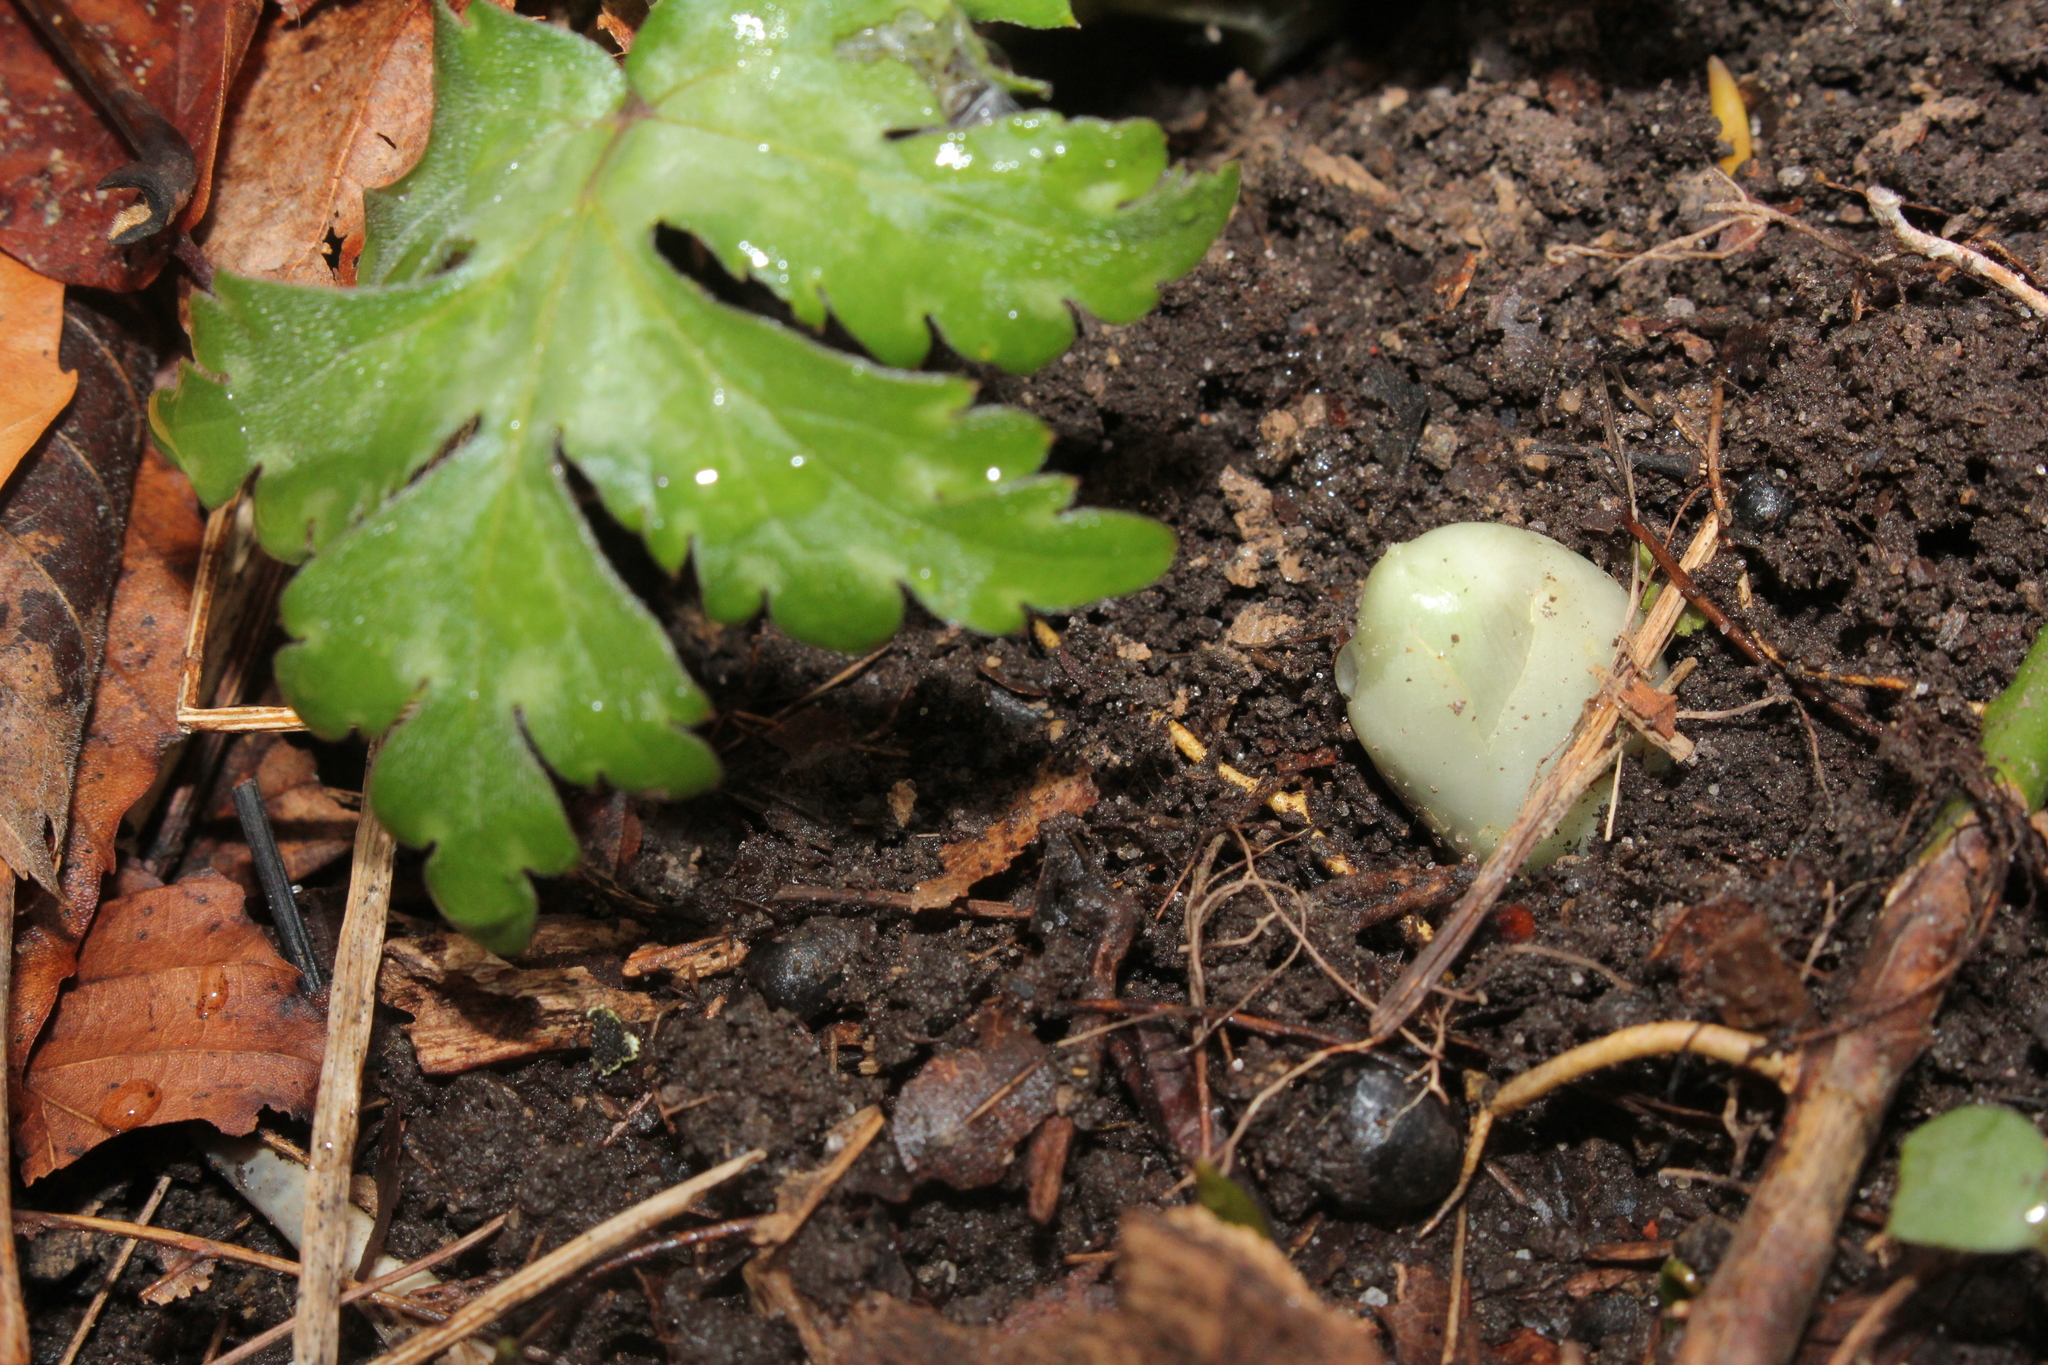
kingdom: Plantae
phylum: Tracheophyta
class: Magnoliopsida
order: Ranunculales
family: Berberidaceae
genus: Podophyllum
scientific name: Podophyllum peltatum
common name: Wild mandrake
